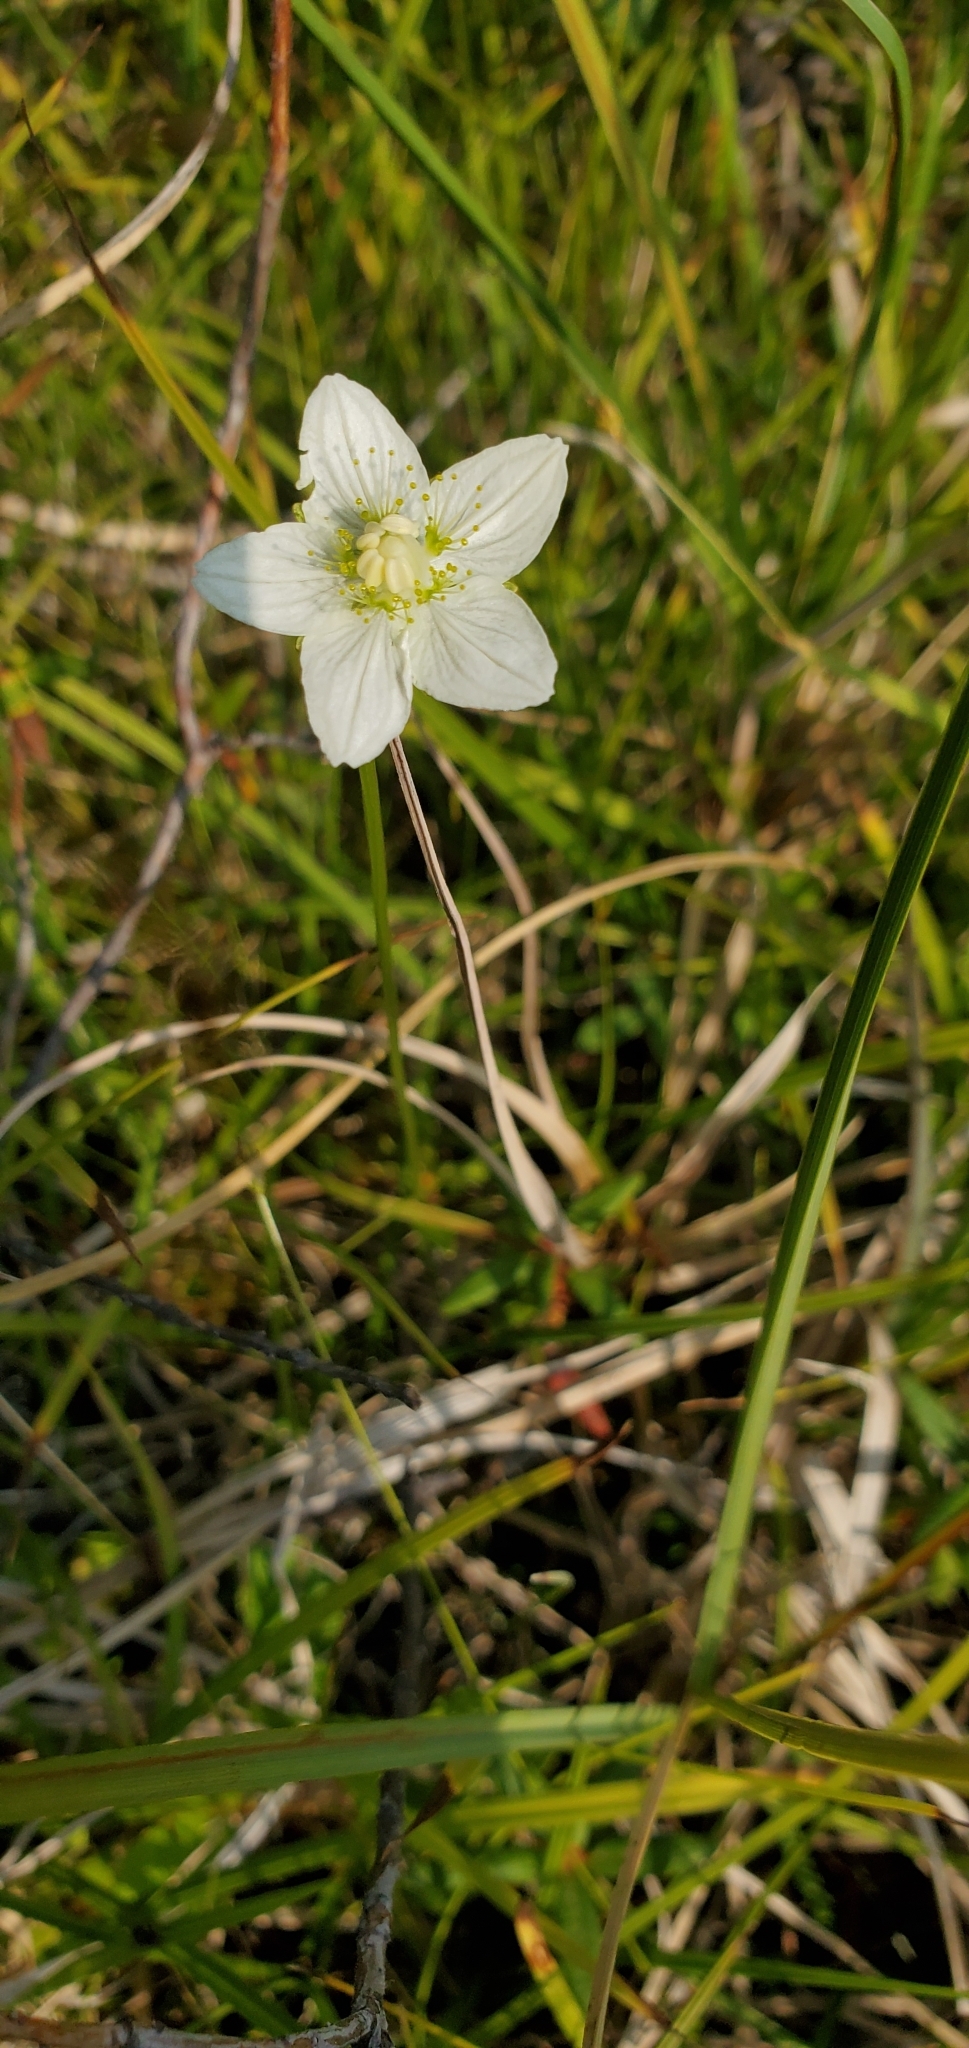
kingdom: Plantae
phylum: Tracheophyta
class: Magnoliopsida
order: Celastrales
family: Parnassiaceae
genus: Parnassia
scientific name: Parnassia palustris
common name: Grass-of-parnassus
